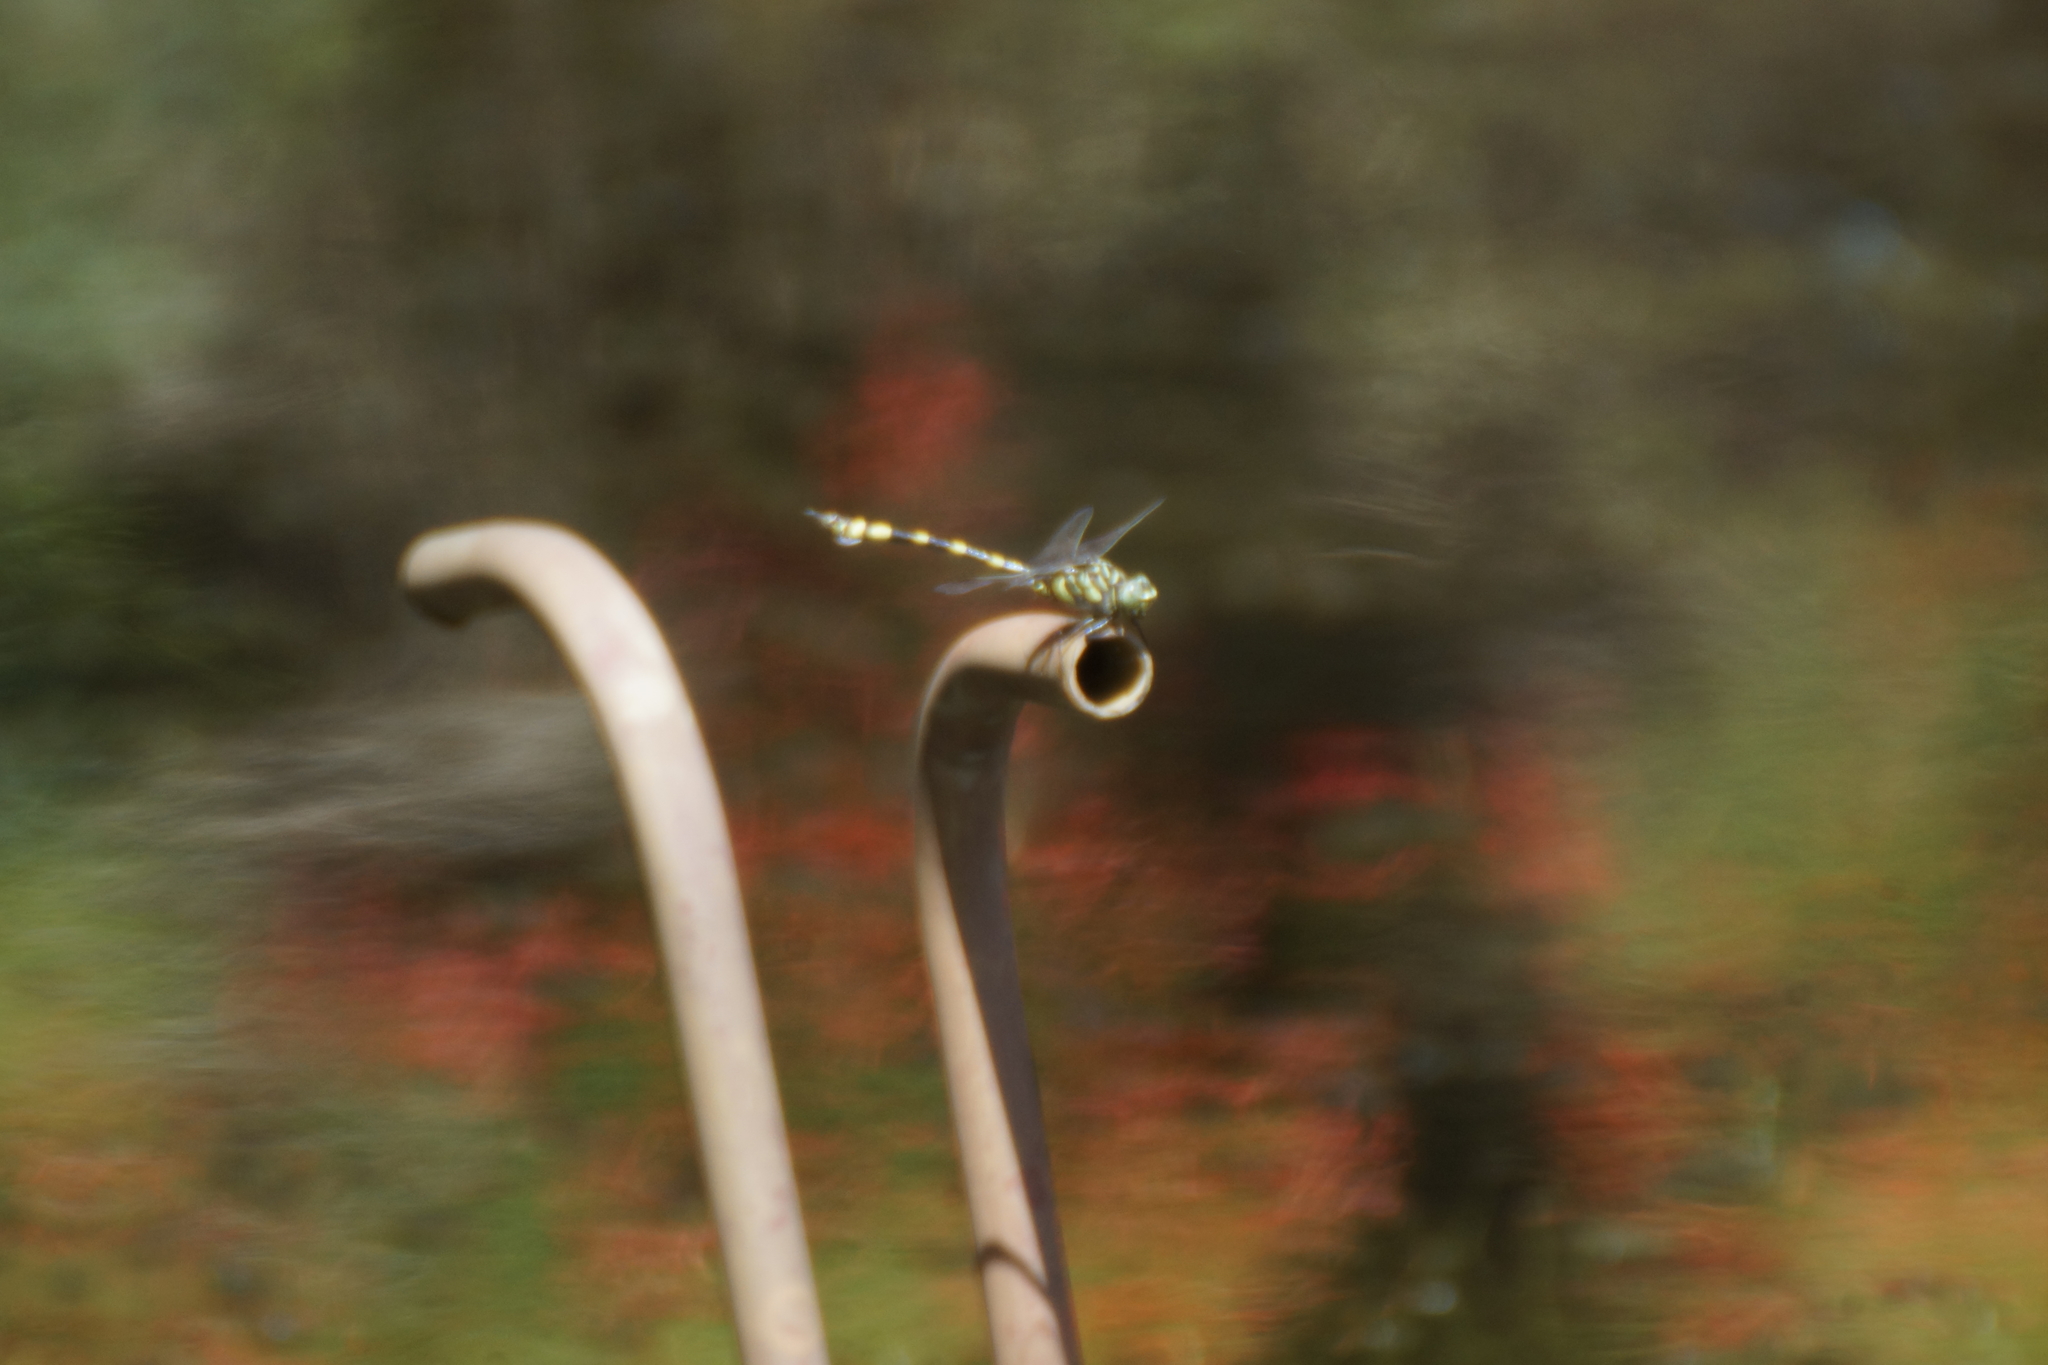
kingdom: Animalia
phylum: Arthropoda
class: Insecta
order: Odonata
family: Gomphidae
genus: Ictinogomphus
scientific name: Ictinogomphus australis
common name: Australian tiger
